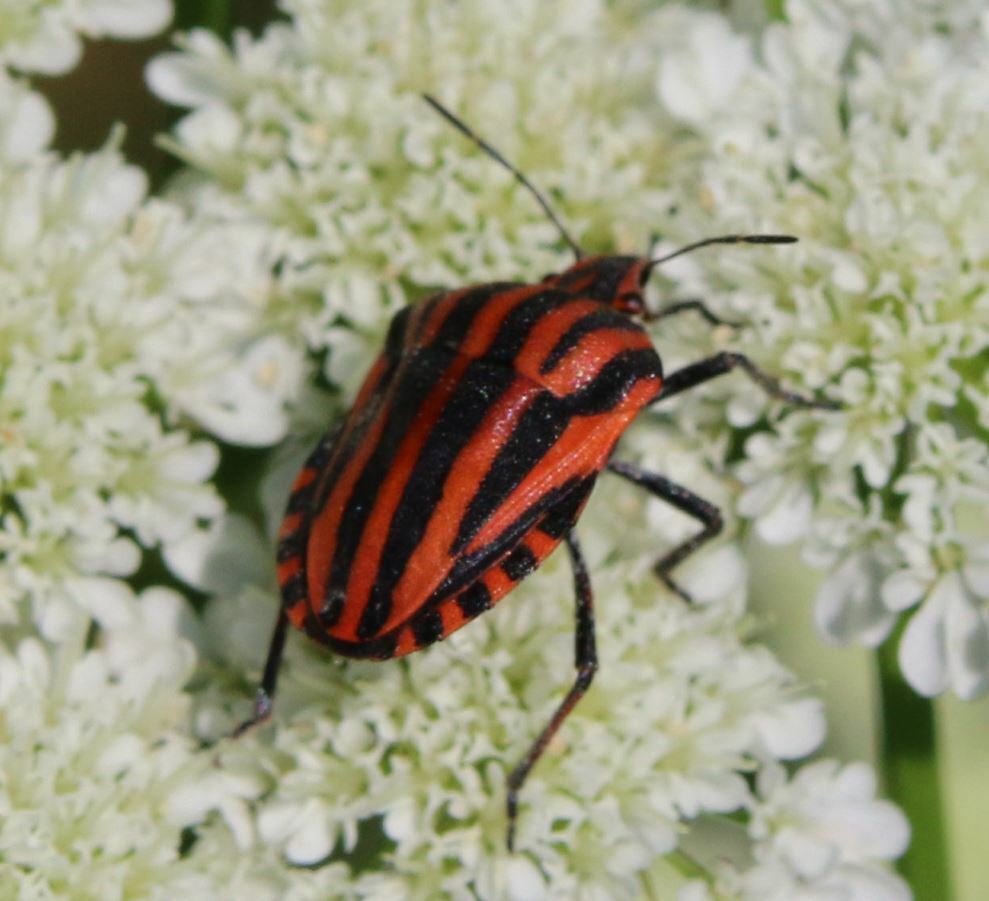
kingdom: Animalia
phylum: Arthropoda
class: Insecta
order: Hemiptera
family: Pentatomidae
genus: Graphosoma
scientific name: Graphosoma italicum
